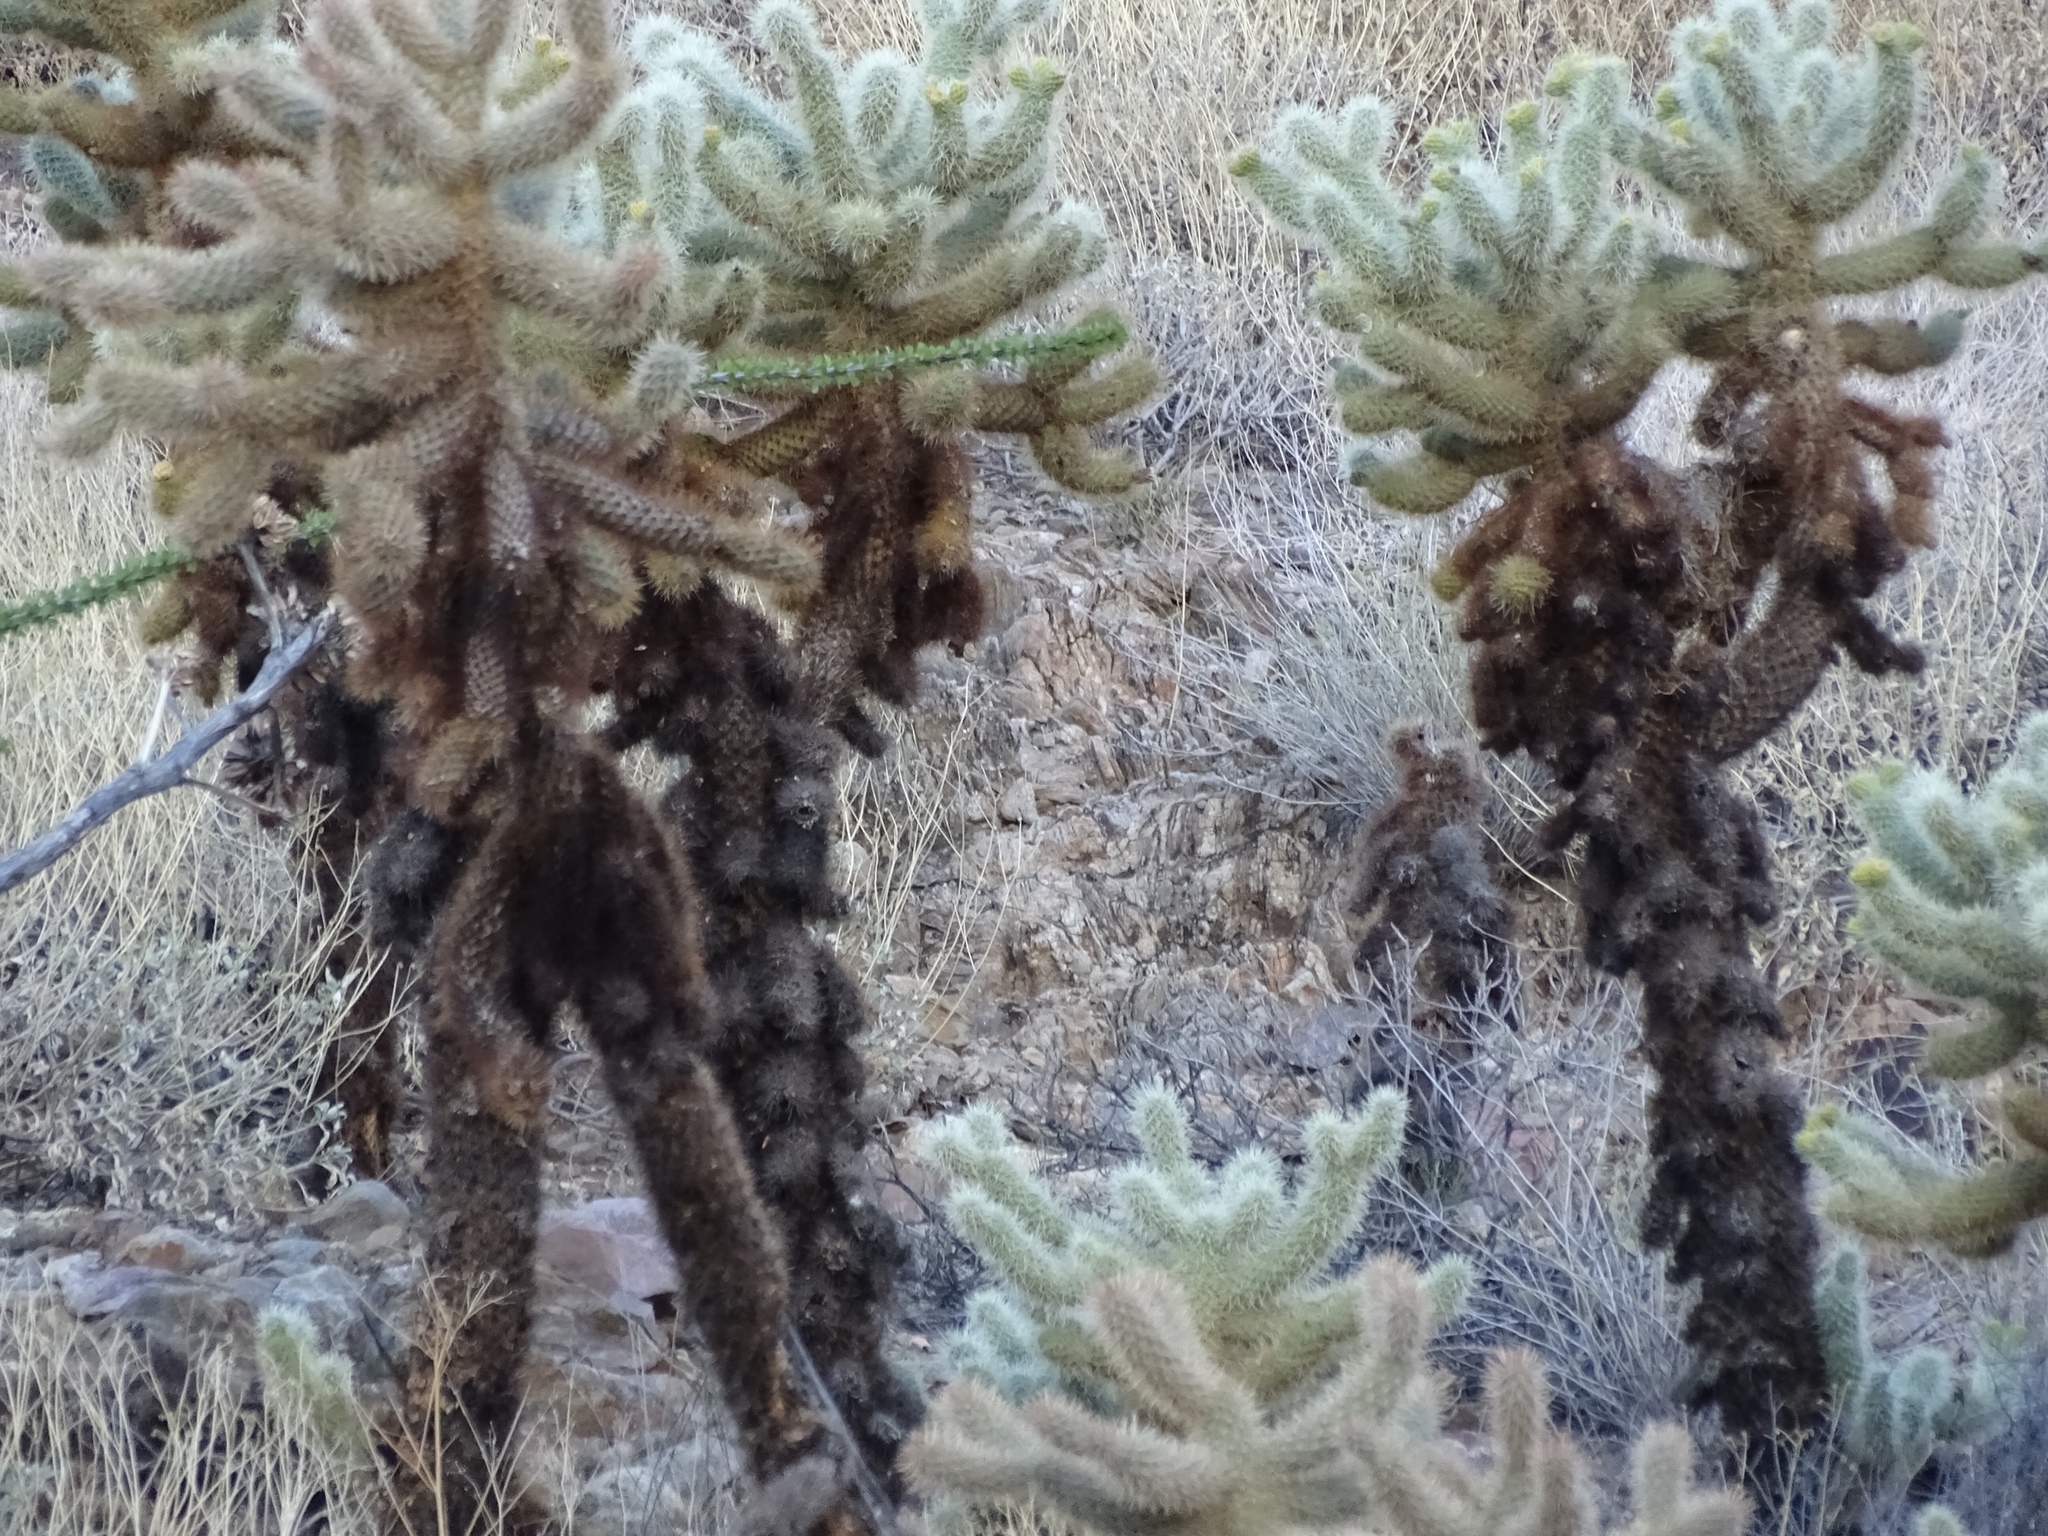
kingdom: Plantae
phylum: Tracheophyta
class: Magnoliopsida
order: Caryophyllales
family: Cactaceae
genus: Cylindropuntia
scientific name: Cylindropuntia fosbergii
